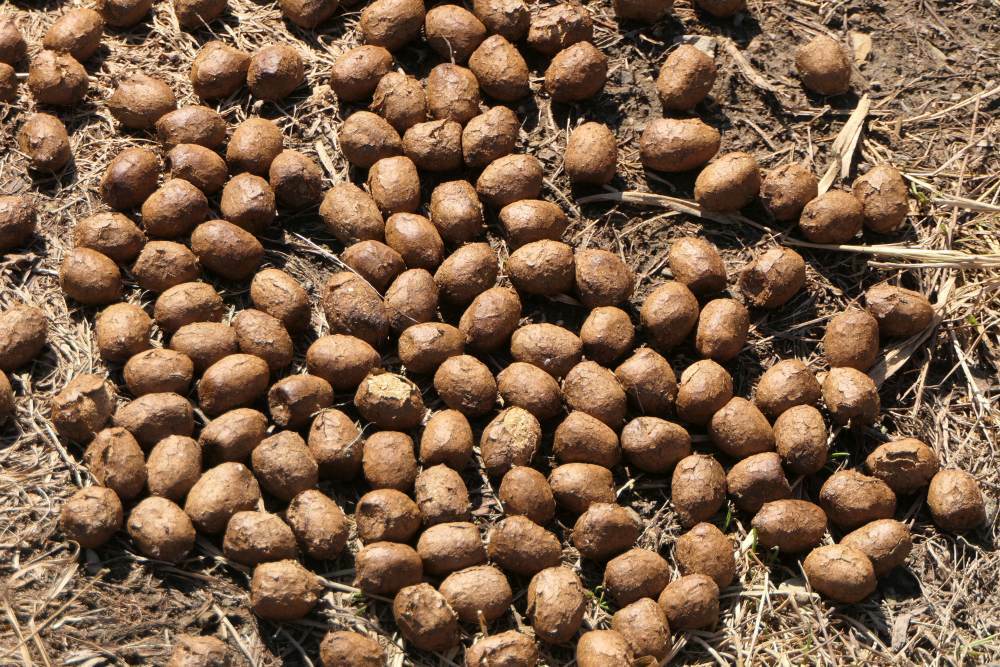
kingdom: Animalia
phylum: Chordata
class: Mammalia
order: Artiodactyla
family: Cervidae
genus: Alces
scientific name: Alces alces
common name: Moose
